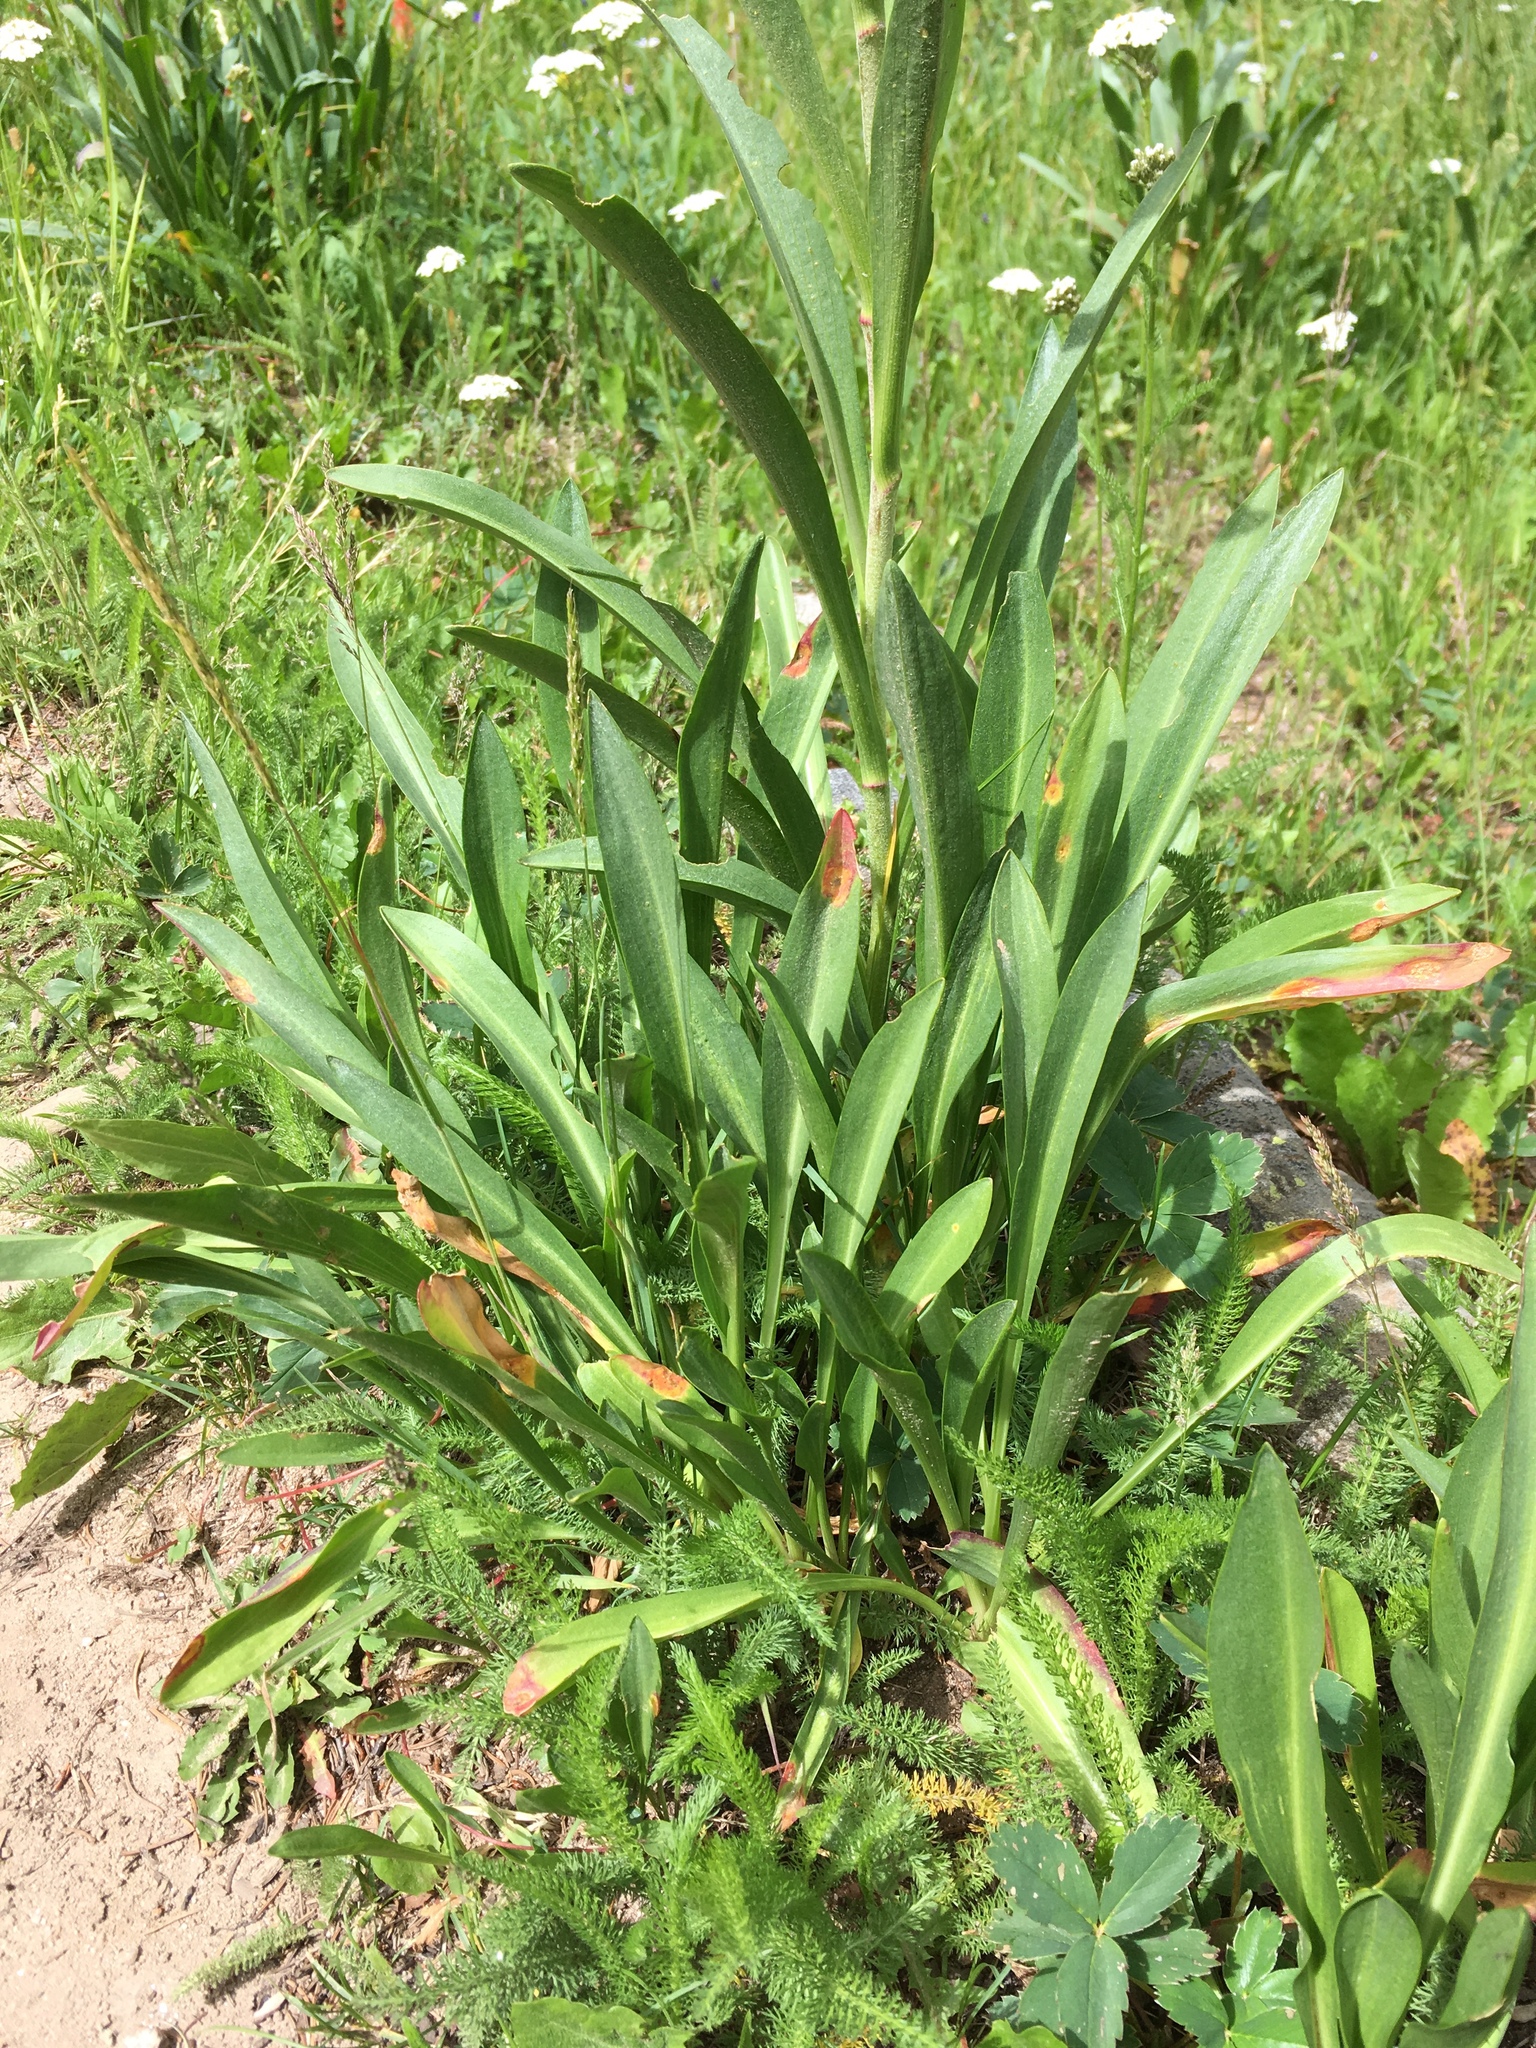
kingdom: Plantae
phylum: Tracheophyta
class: Magnoliopsida
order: Asterales
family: Asteraceae
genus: Hymenoxys
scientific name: Hymenoxys hoopesii
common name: Orange-sneezeweed
